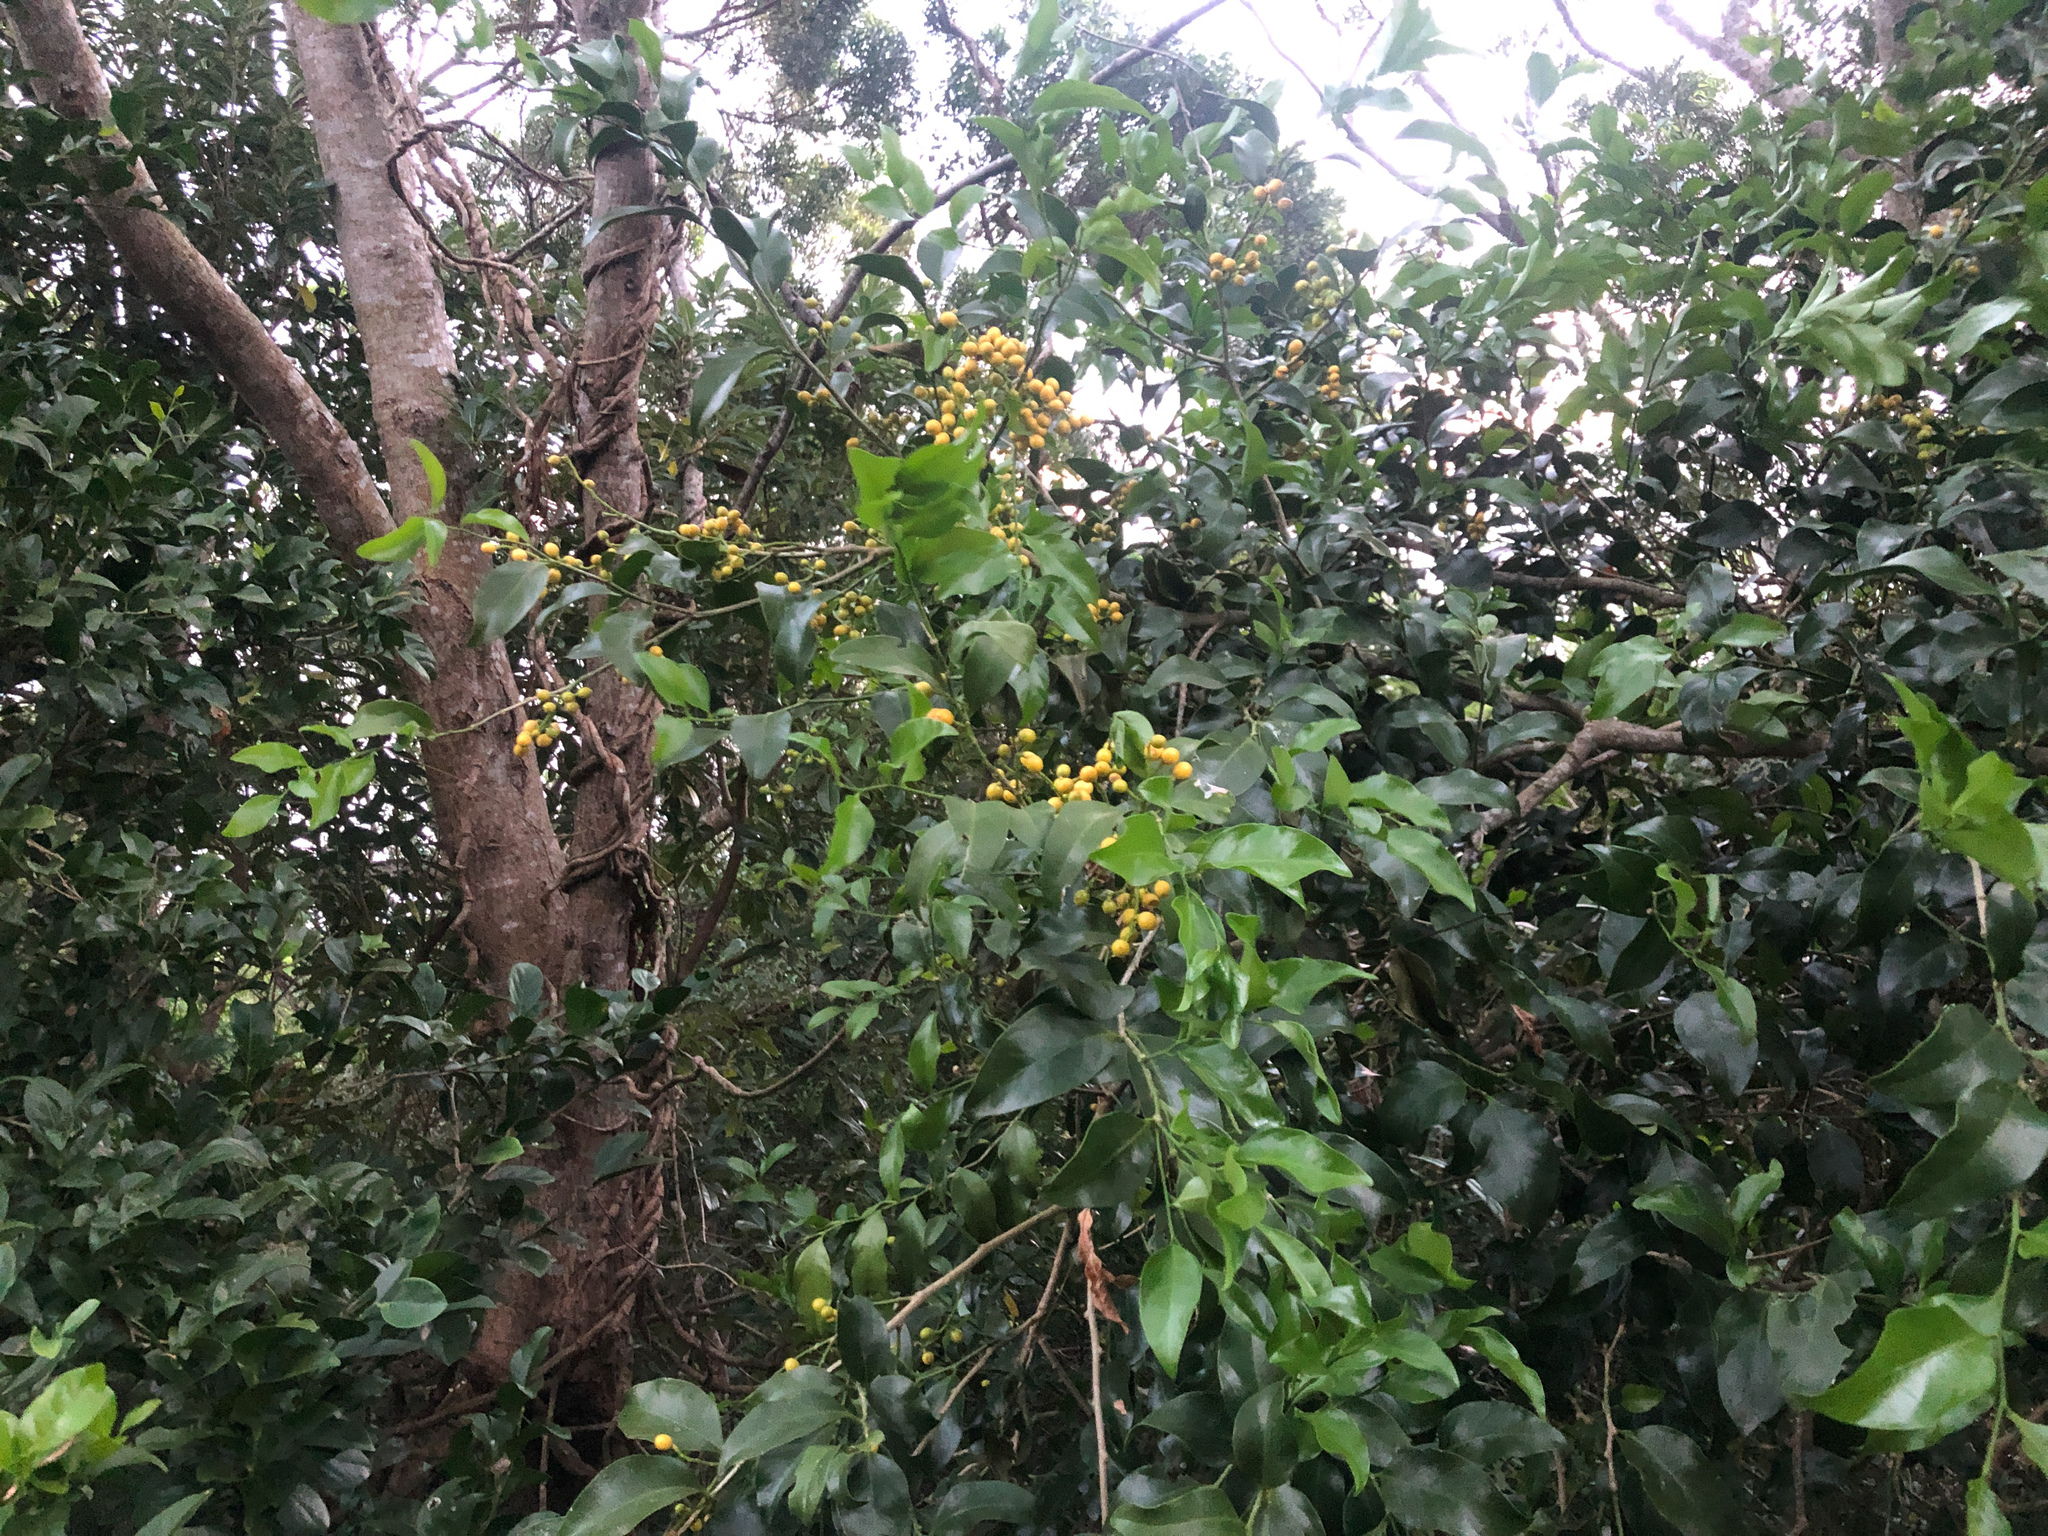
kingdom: Plantae
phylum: Tracheophyta
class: Magnoliopsida
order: Santalales
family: Opiliaceae
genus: Champereia
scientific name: Champereia manillana
